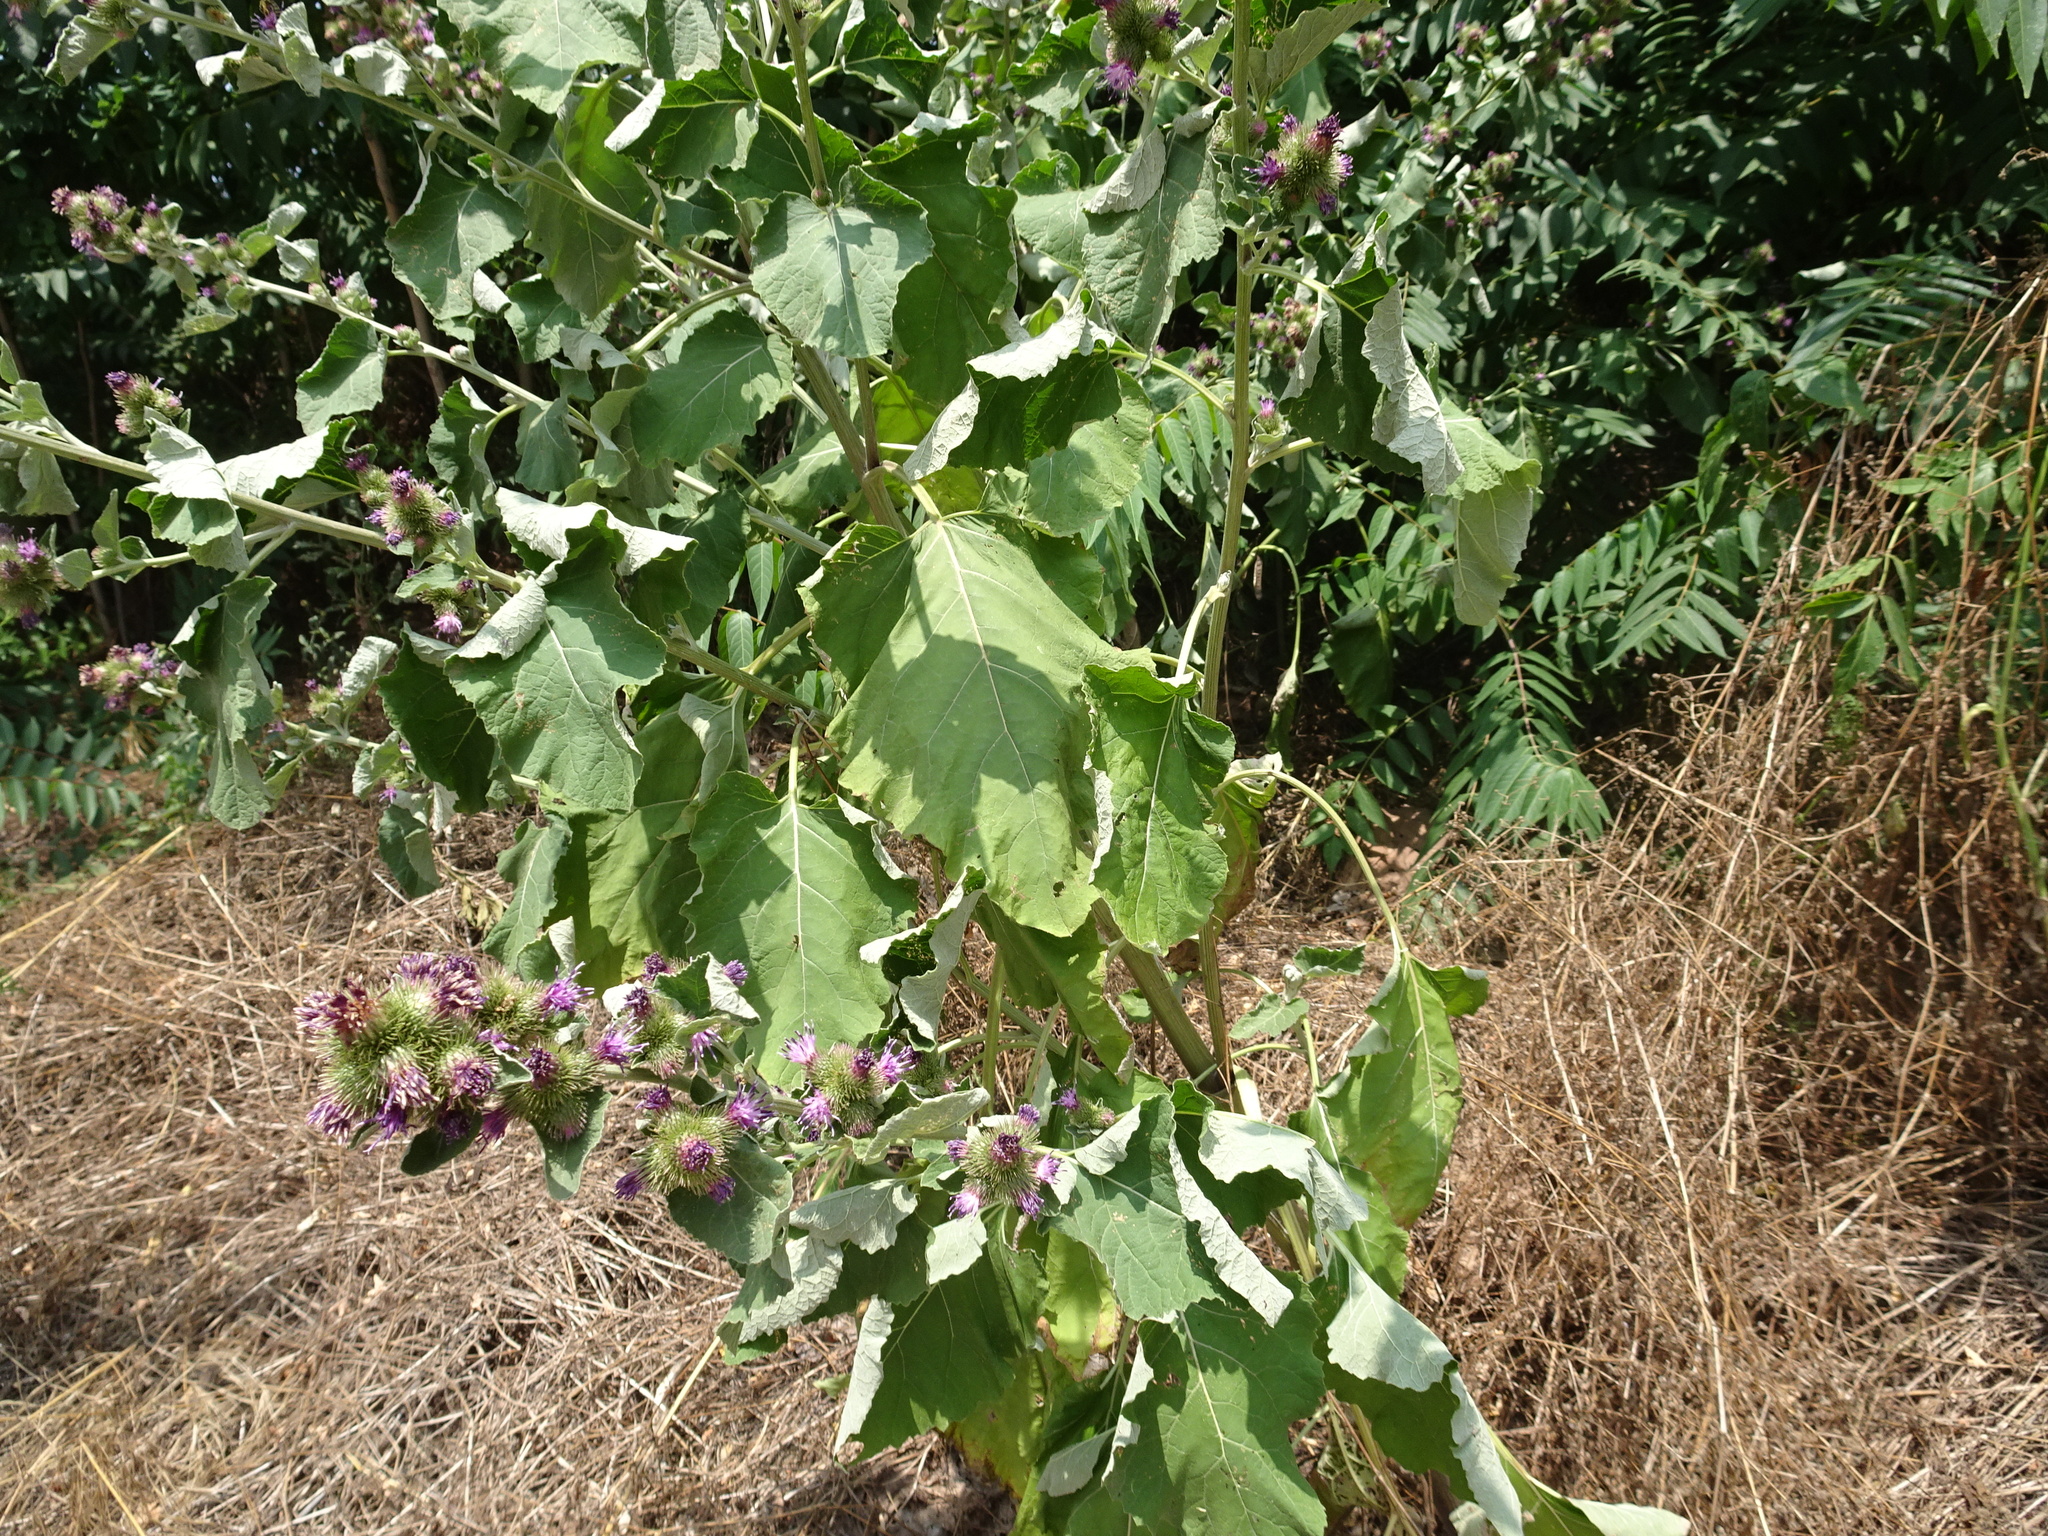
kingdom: Plantae
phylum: Tracheophyta
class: Magnoliopsida
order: Asterales
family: Asteraceae
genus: Arctium
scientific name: Arctium minus
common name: Lesser burdock
